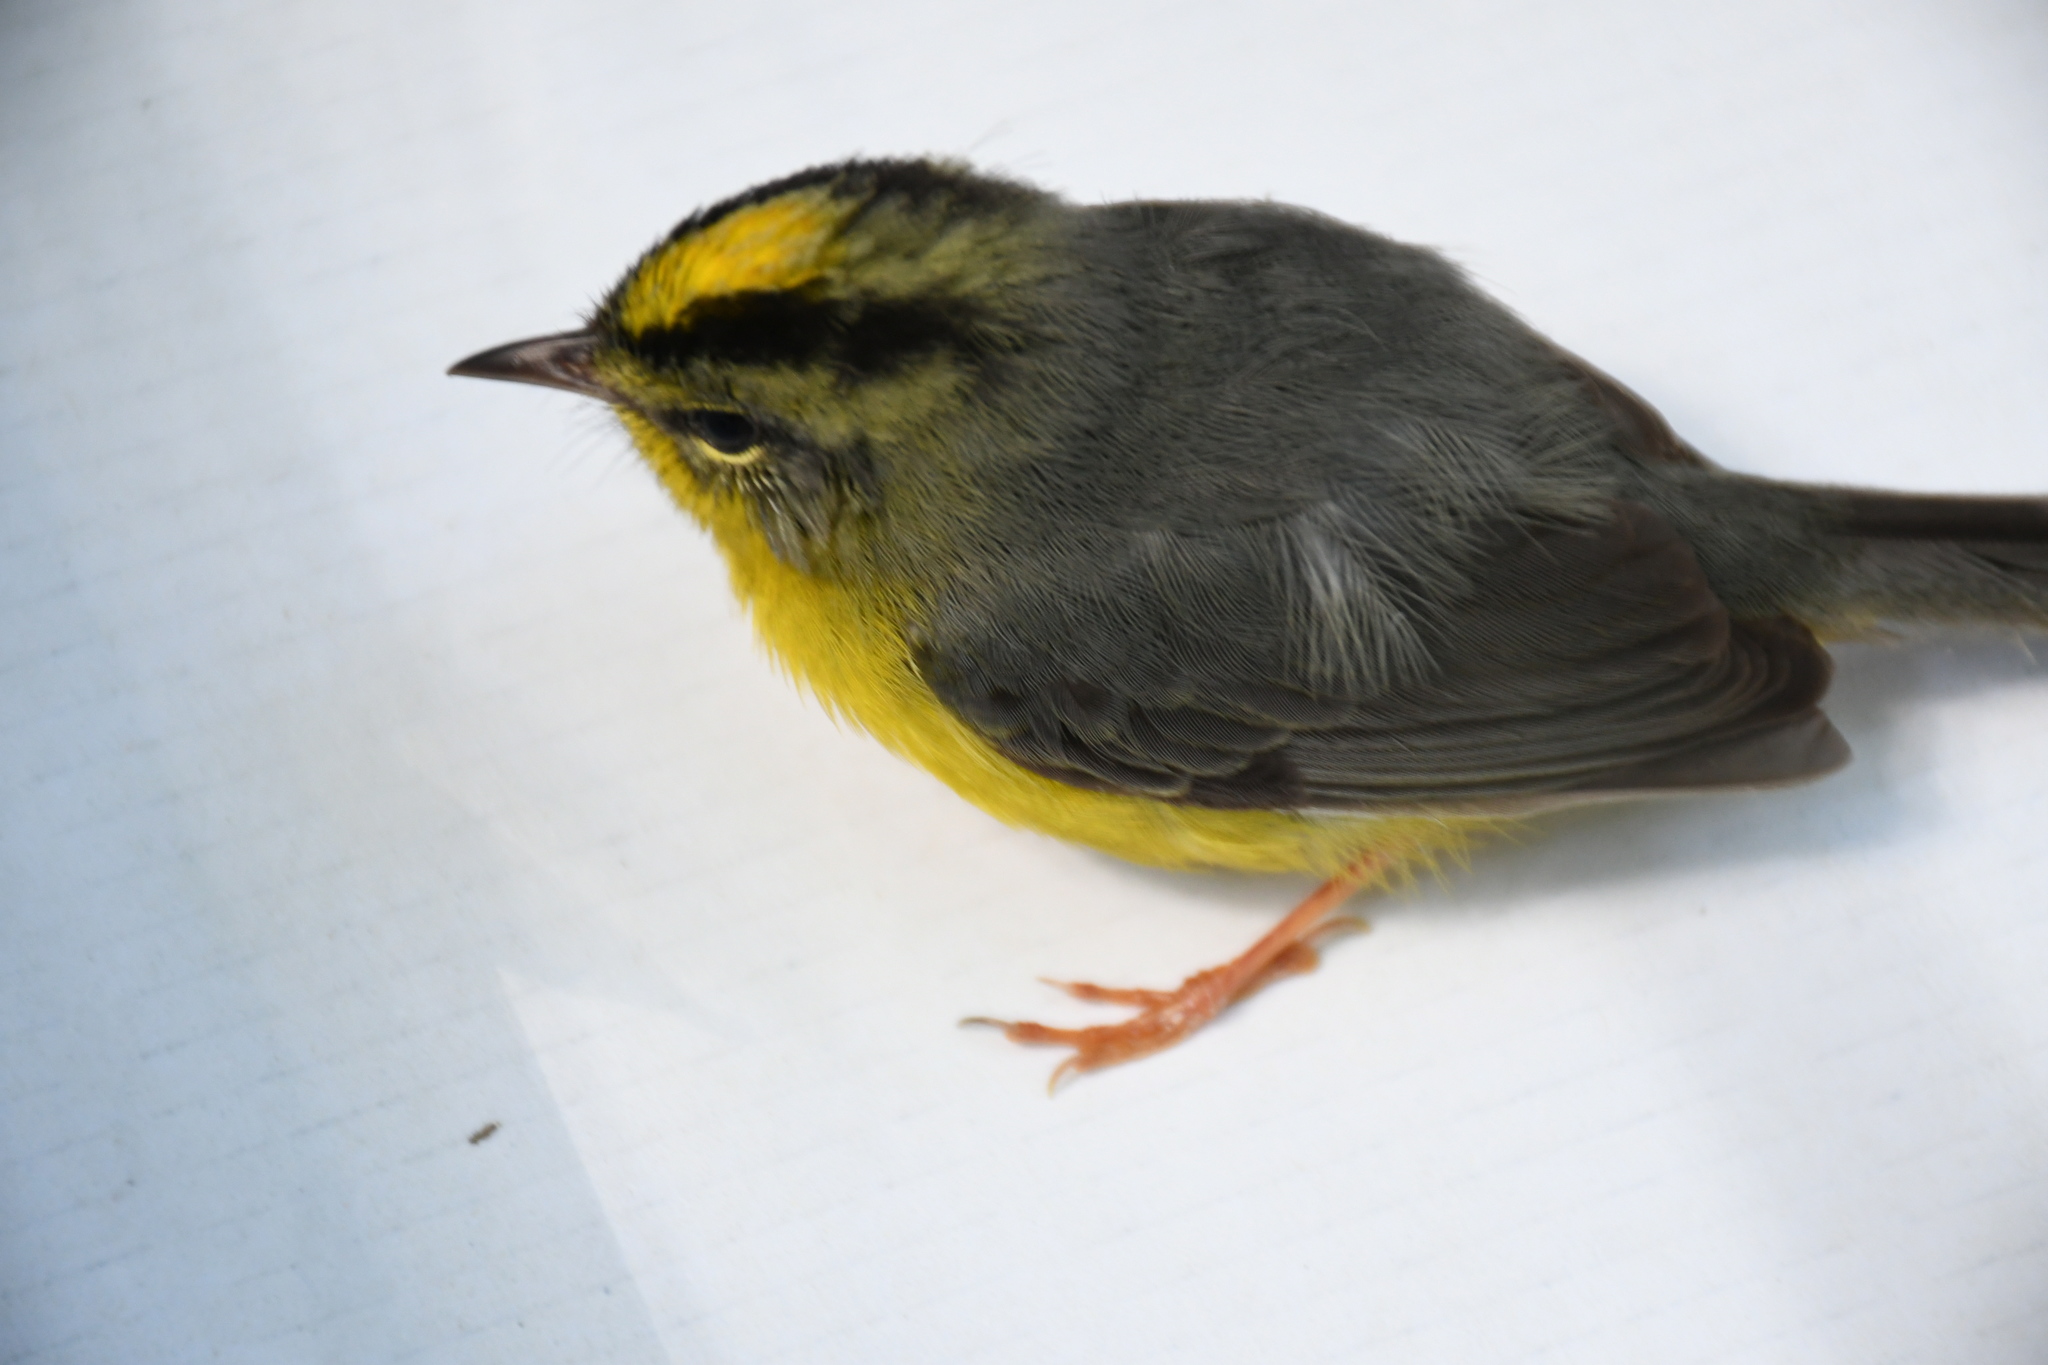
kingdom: Animalia
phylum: Chordata
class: Aves
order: Passeriformes
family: Parulidae
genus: Basileuterus
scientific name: Basileuterus culicivorus
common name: Golden-crowned warbler
